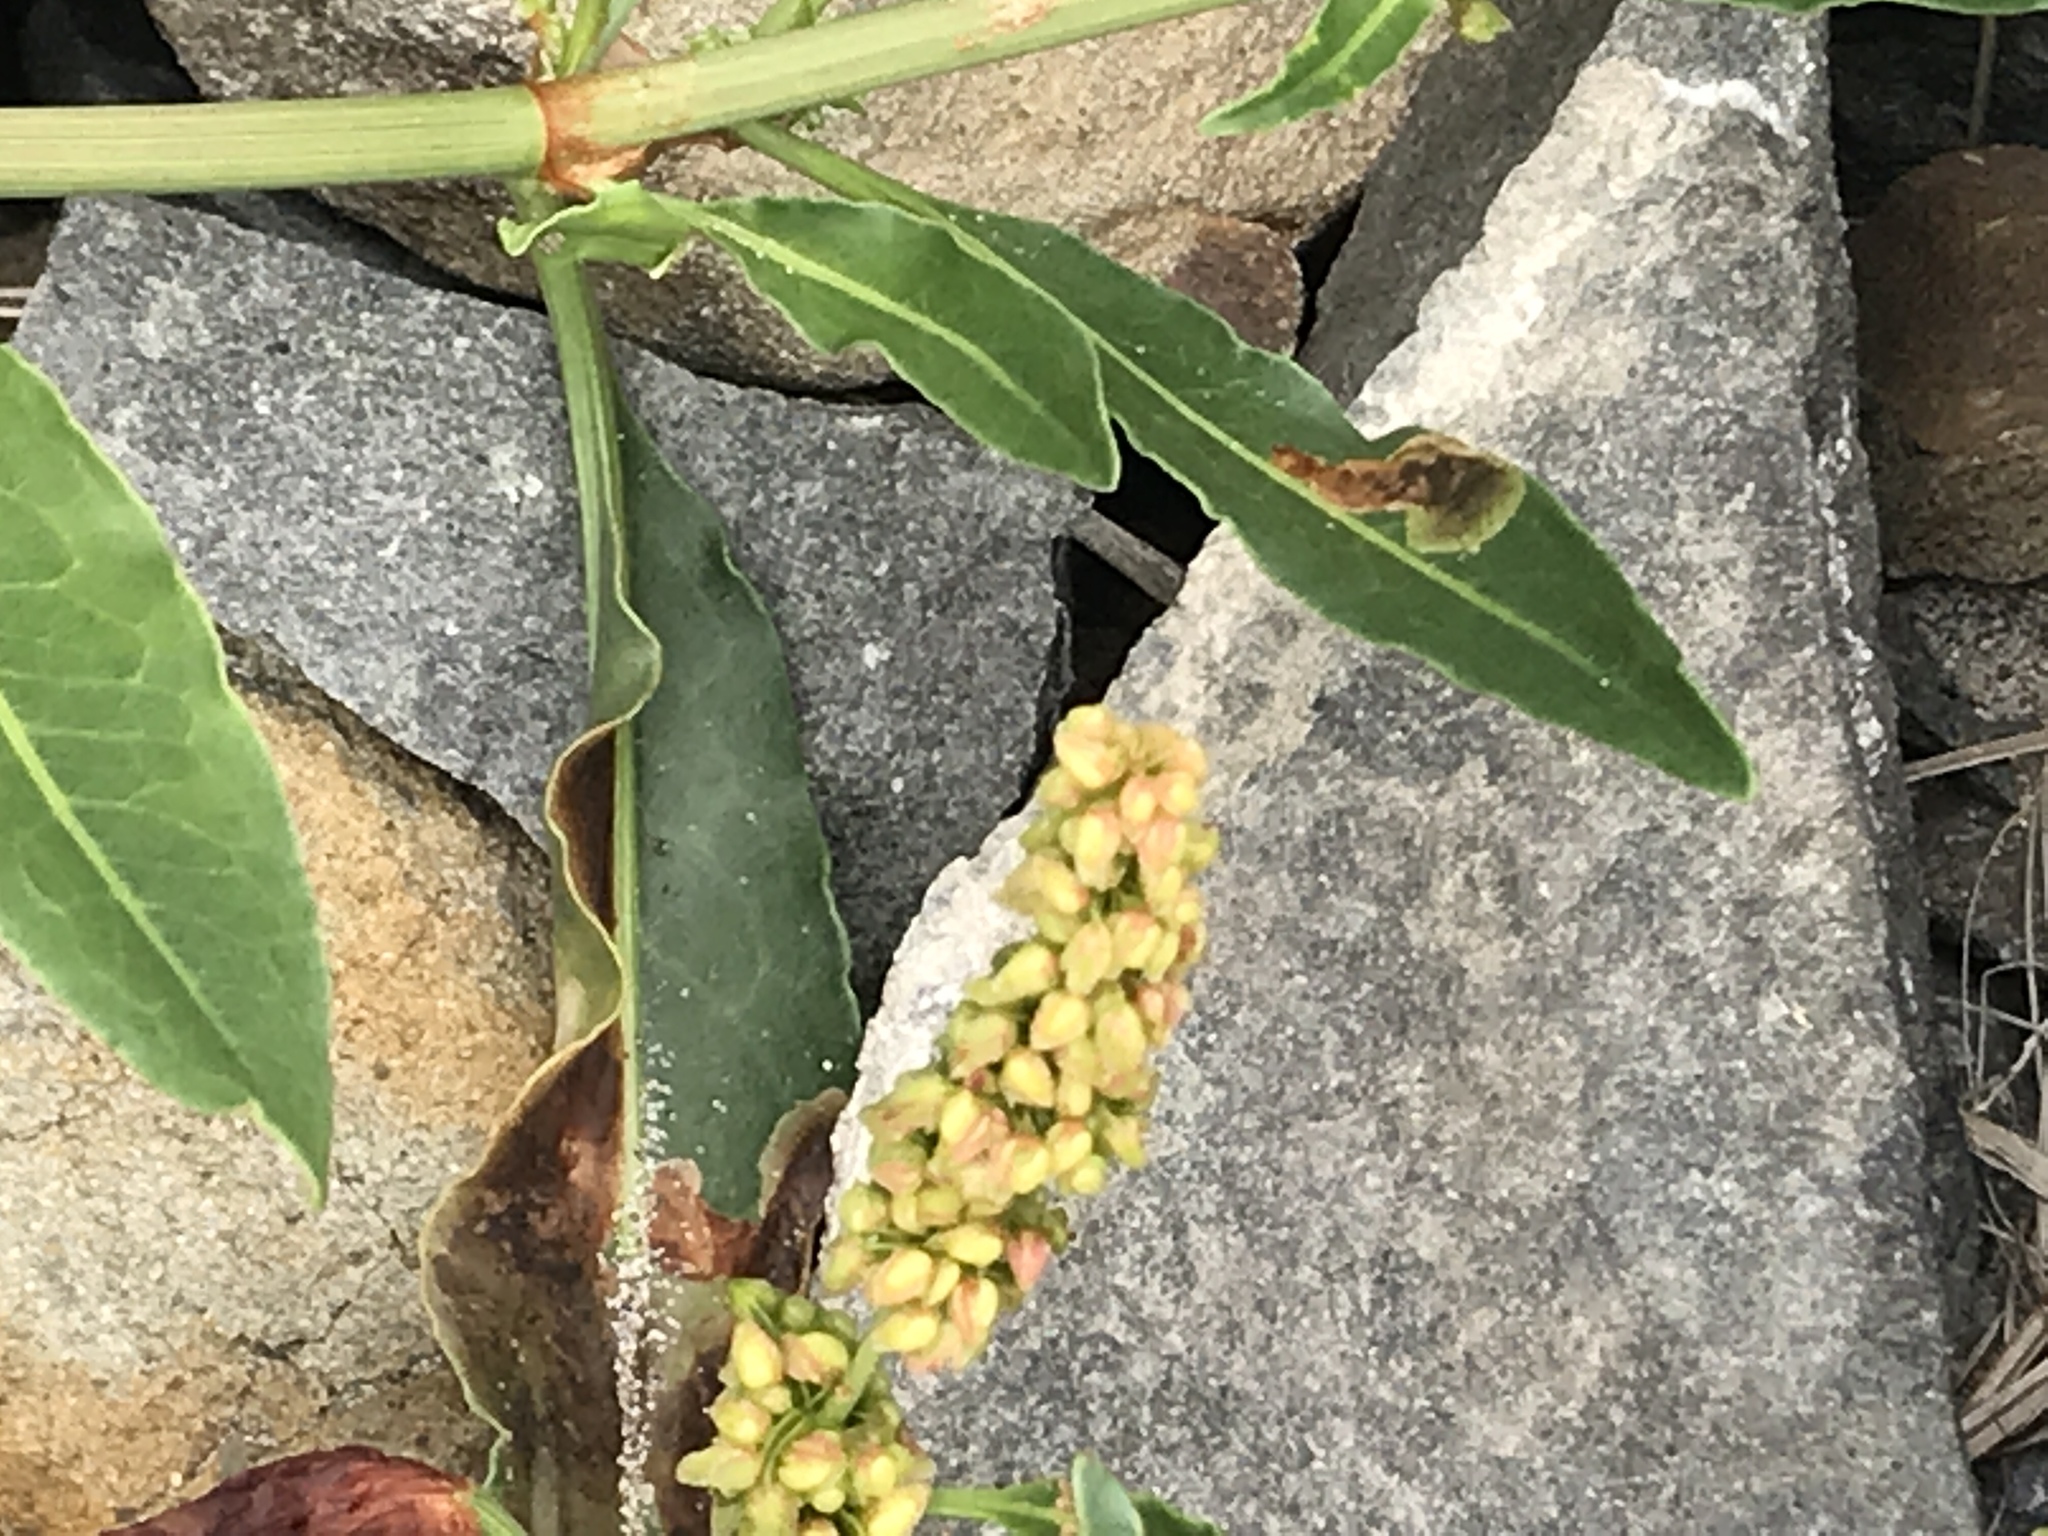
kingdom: Plantae
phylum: Tracheophyta
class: Magnoliopsida
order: Caryophyllales
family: Polygonaceae
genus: Rumex
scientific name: Rumex salicifolius
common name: Willow-leaved dock
